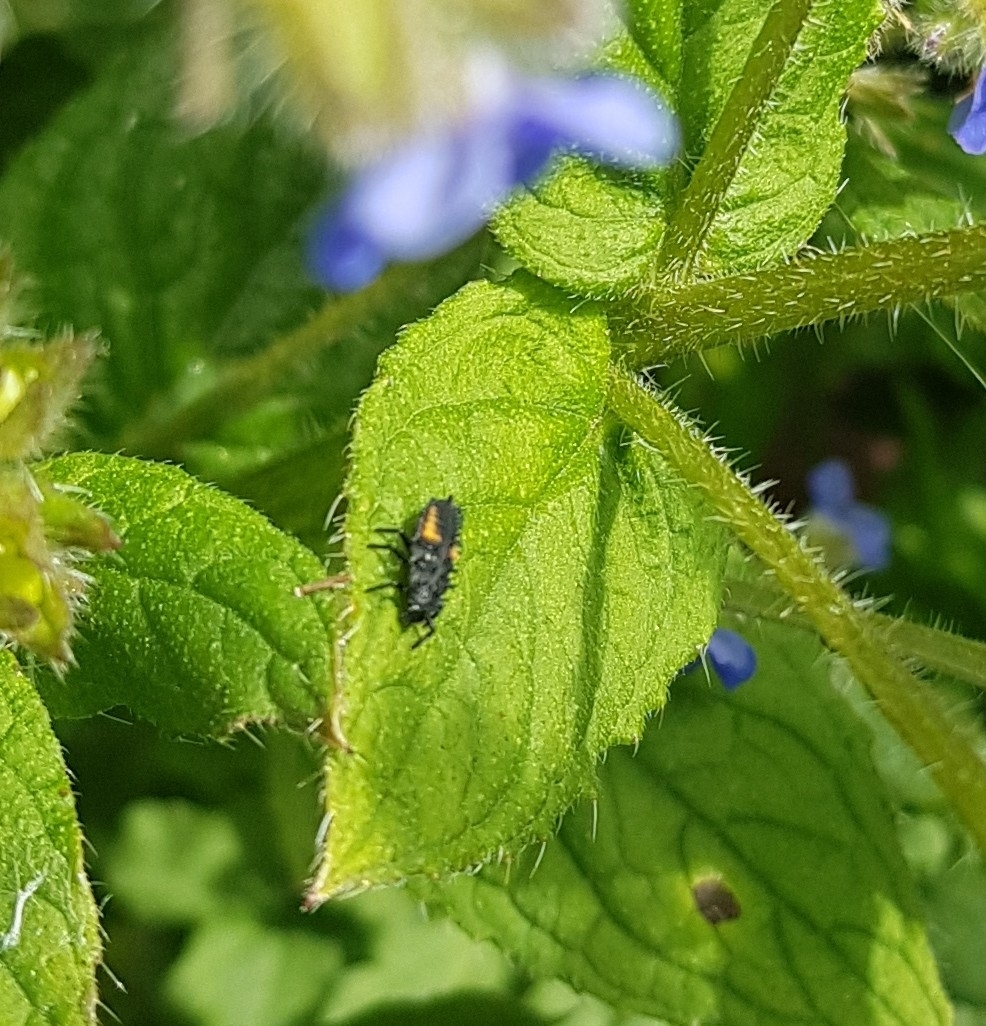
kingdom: Animalia
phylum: Arthropoda
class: Insecta
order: Coleoptera
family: Coccinellidae
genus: Harmonia
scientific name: Harmonia axyridis
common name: Harlequin ladybird
